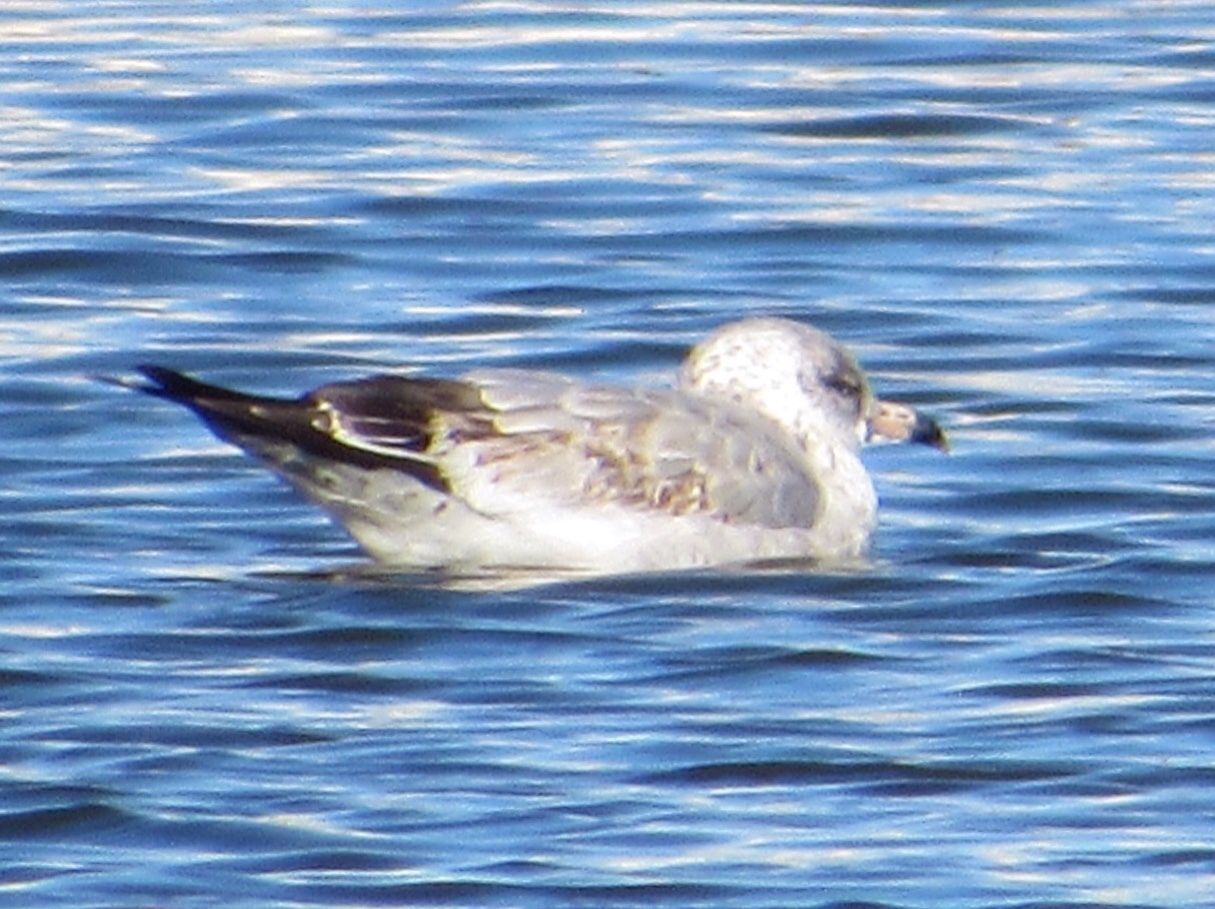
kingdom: Animalia
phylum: Chordata
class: Aves
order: Charadriiformes
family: Laridae
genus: Larus
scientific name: Larus delawarensis
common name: Ring-billed gull
